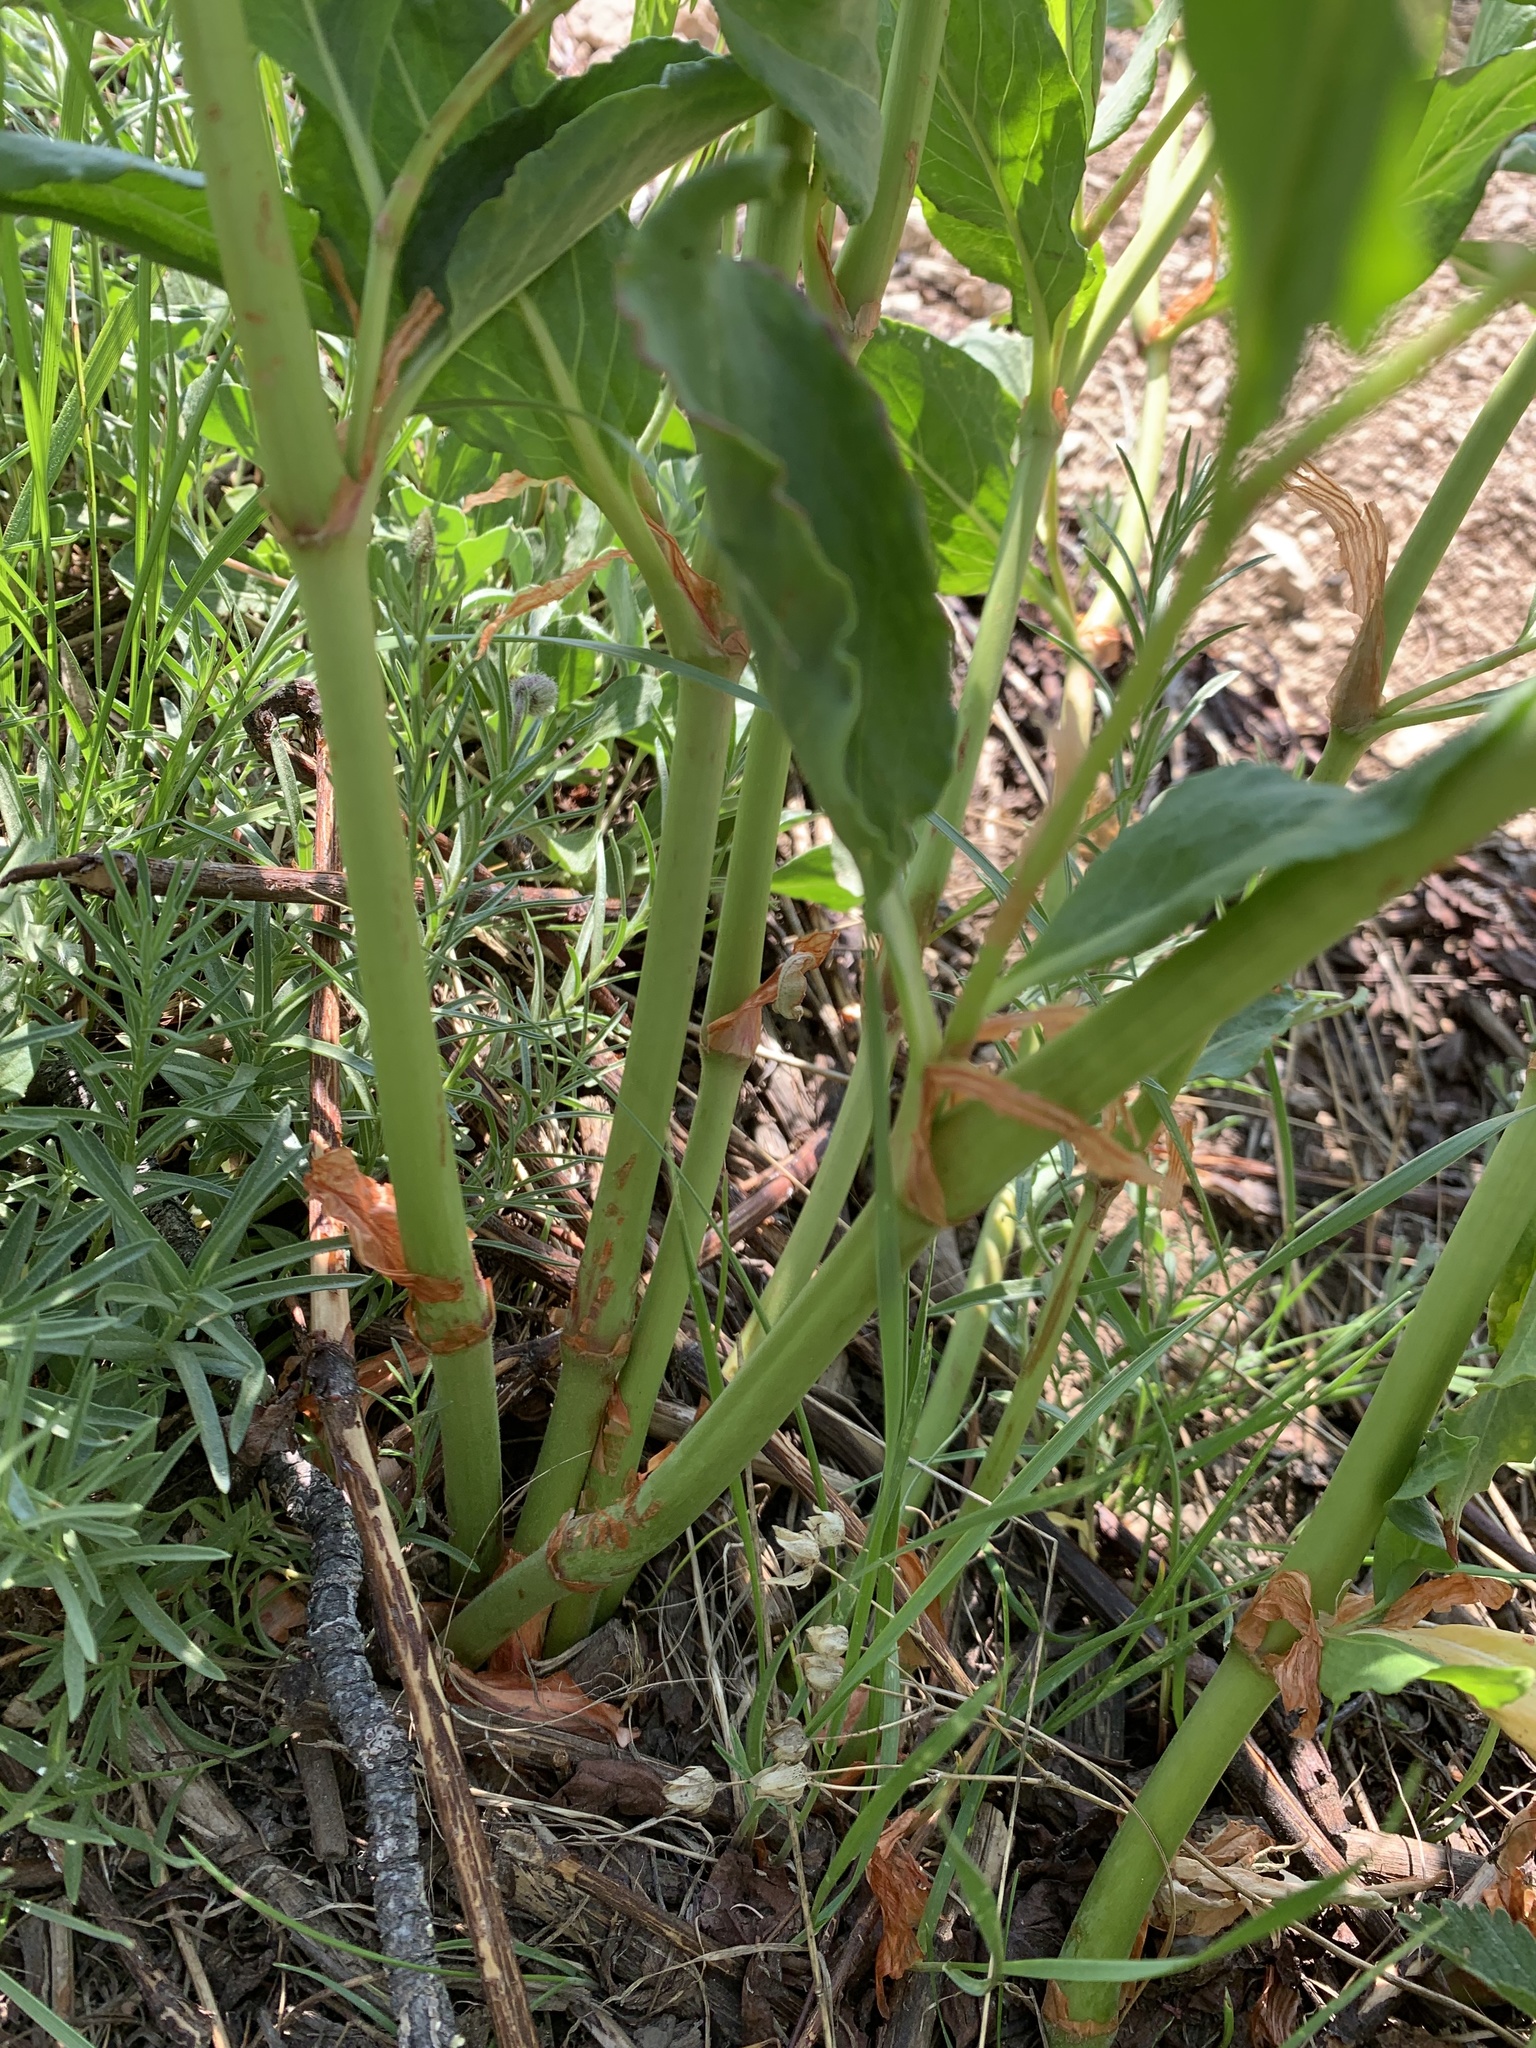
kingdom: Plantae
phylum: Tracheophyta
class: Magnoliopsida
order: Caryophyllales
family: Polygonaceae
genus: Koenigia
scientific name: Koenigia phytolaccifolia
